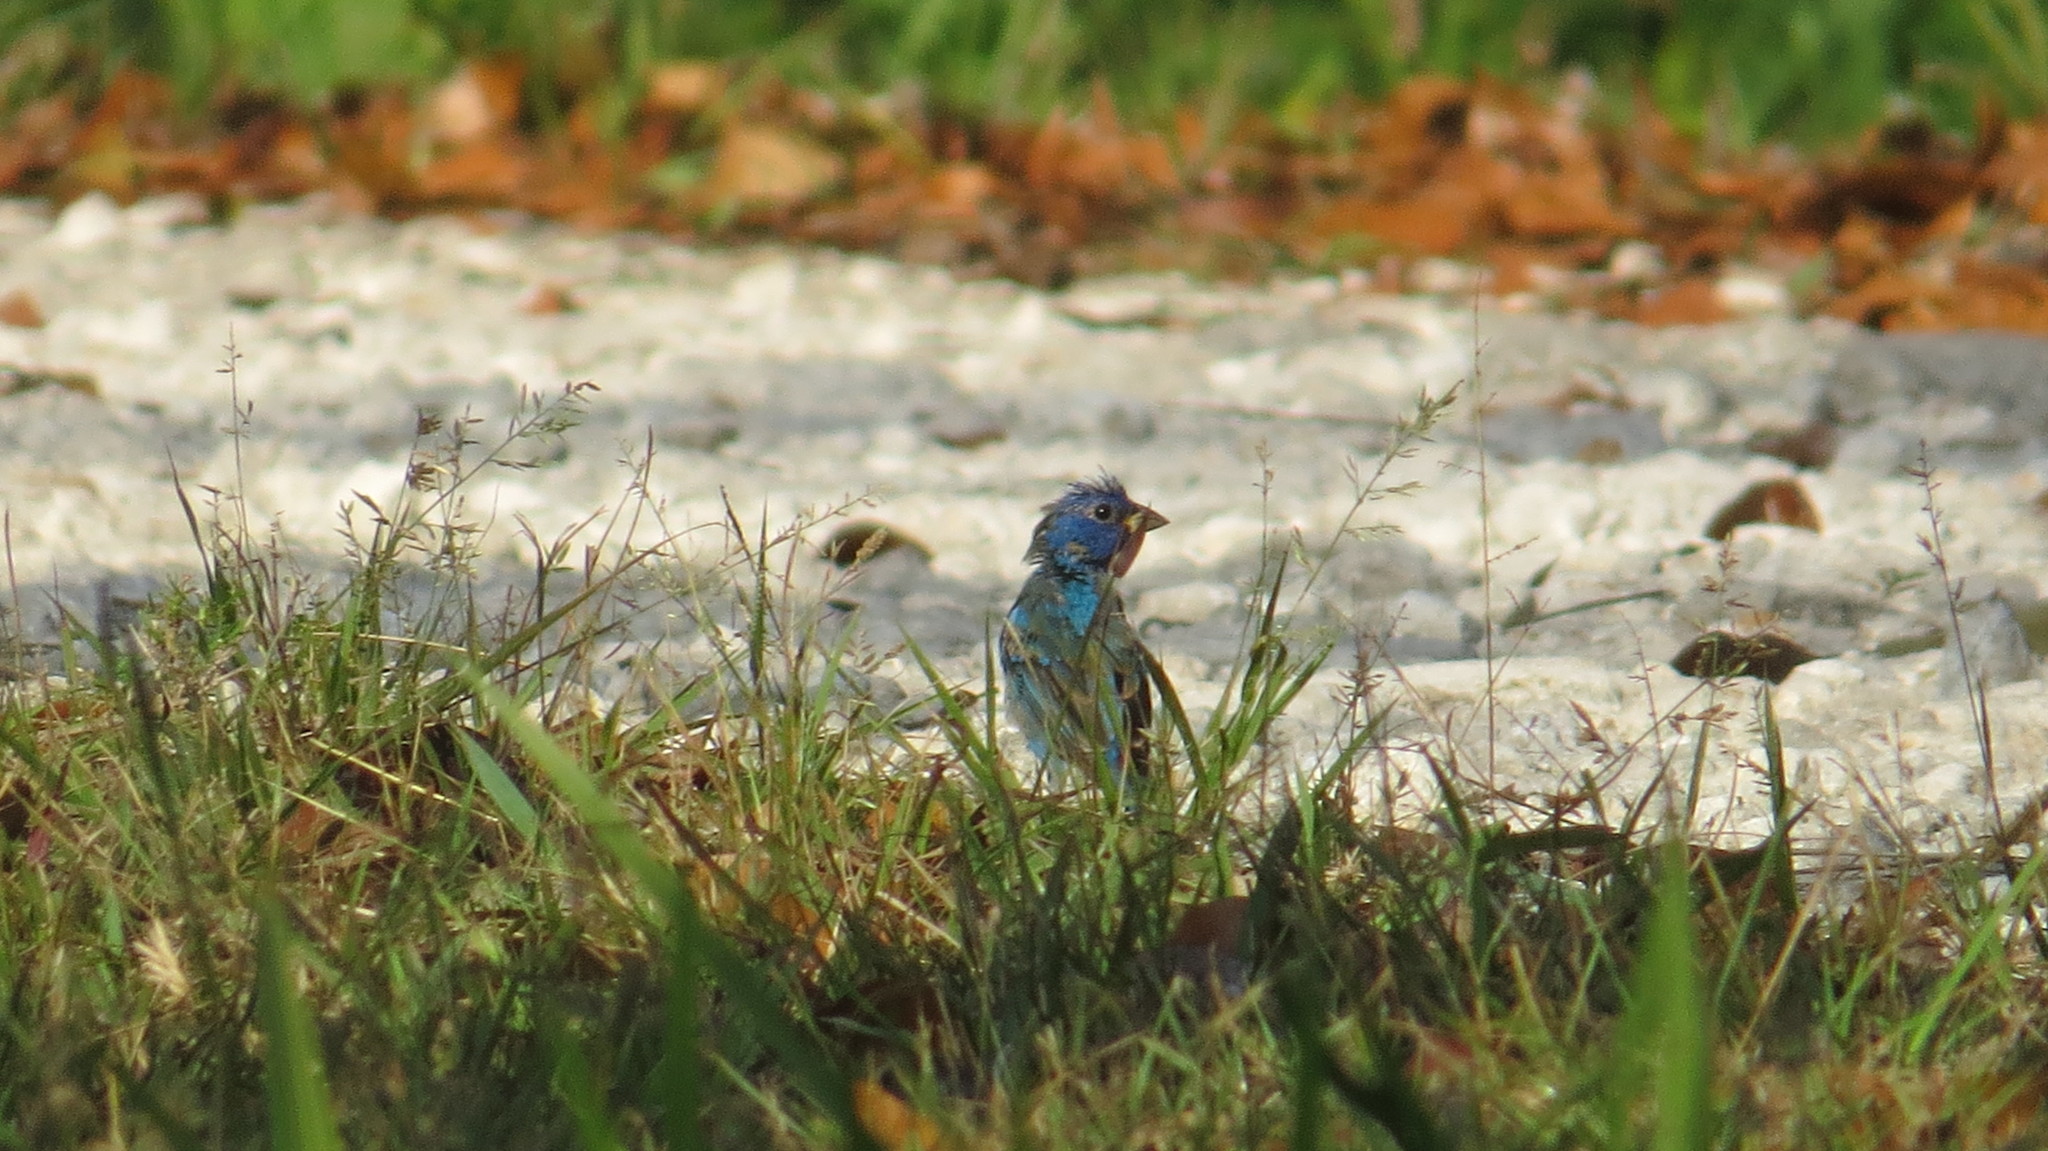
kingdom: Animalia
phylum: Chordata
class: Aves
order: Passeriformes
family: Cardinalidae
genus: Passerina
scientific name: Passerina cyanea
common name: Indigo bunting
